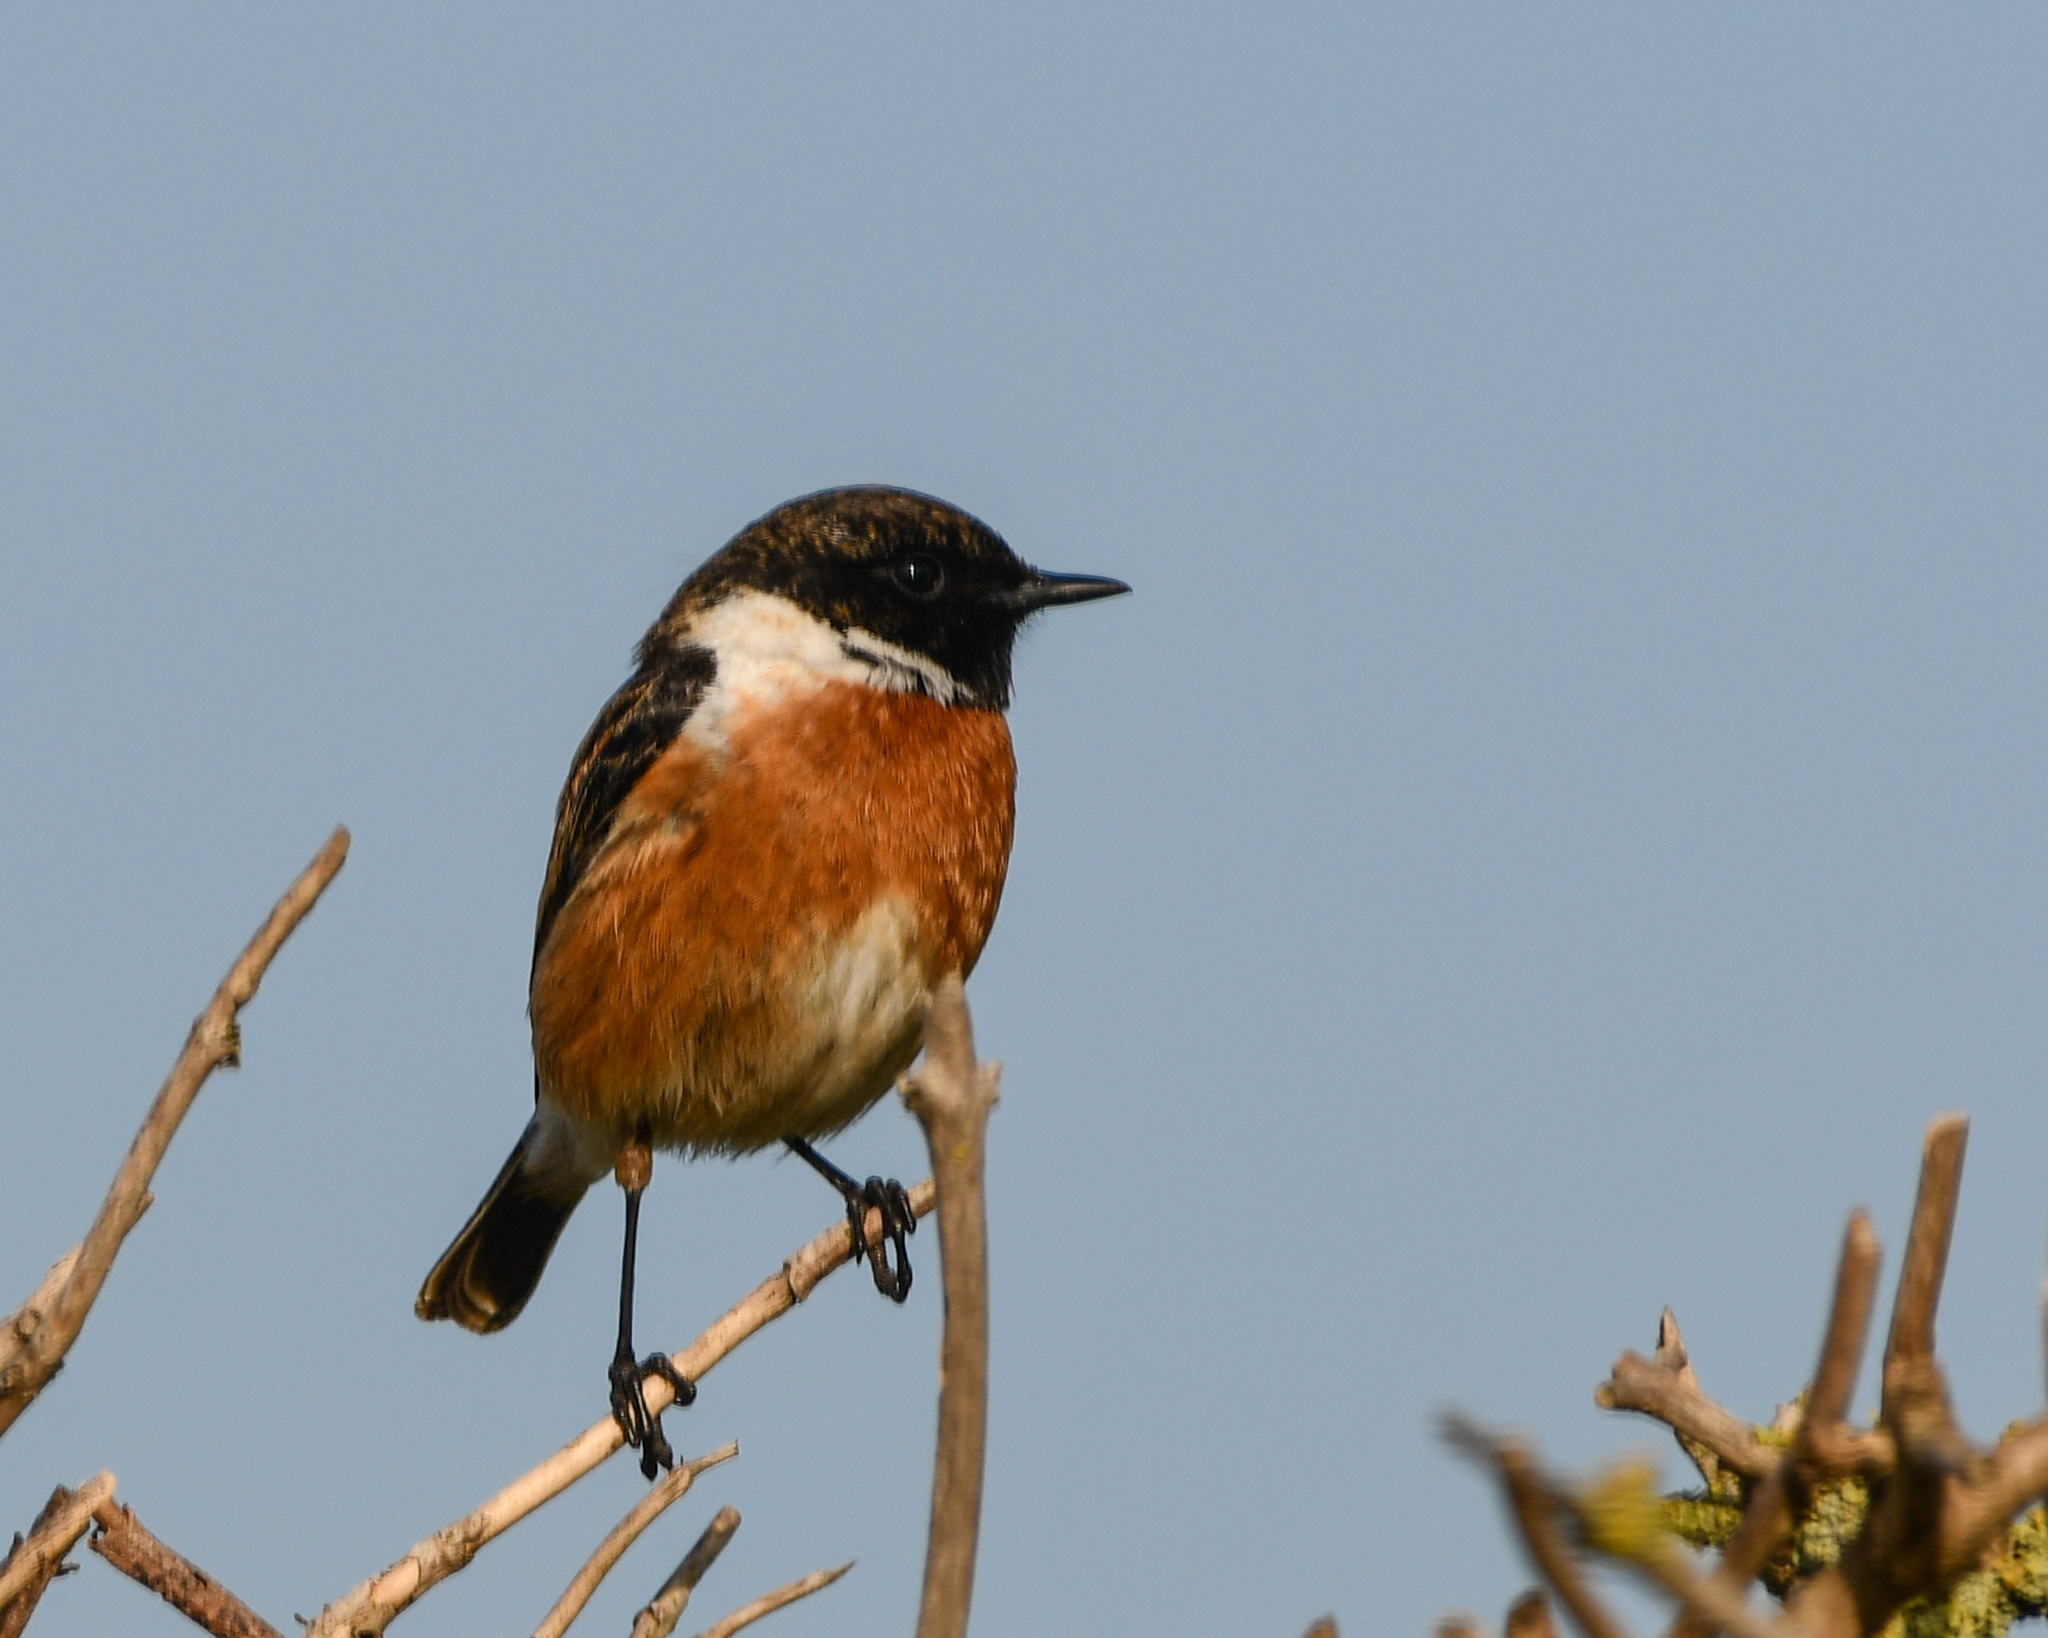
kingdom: Animalia
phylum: Chordata
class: Aves
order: Passeriformes
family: Muscicapidae
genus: Saxicola
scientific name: Saxicola rubicola
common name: European stonechat
